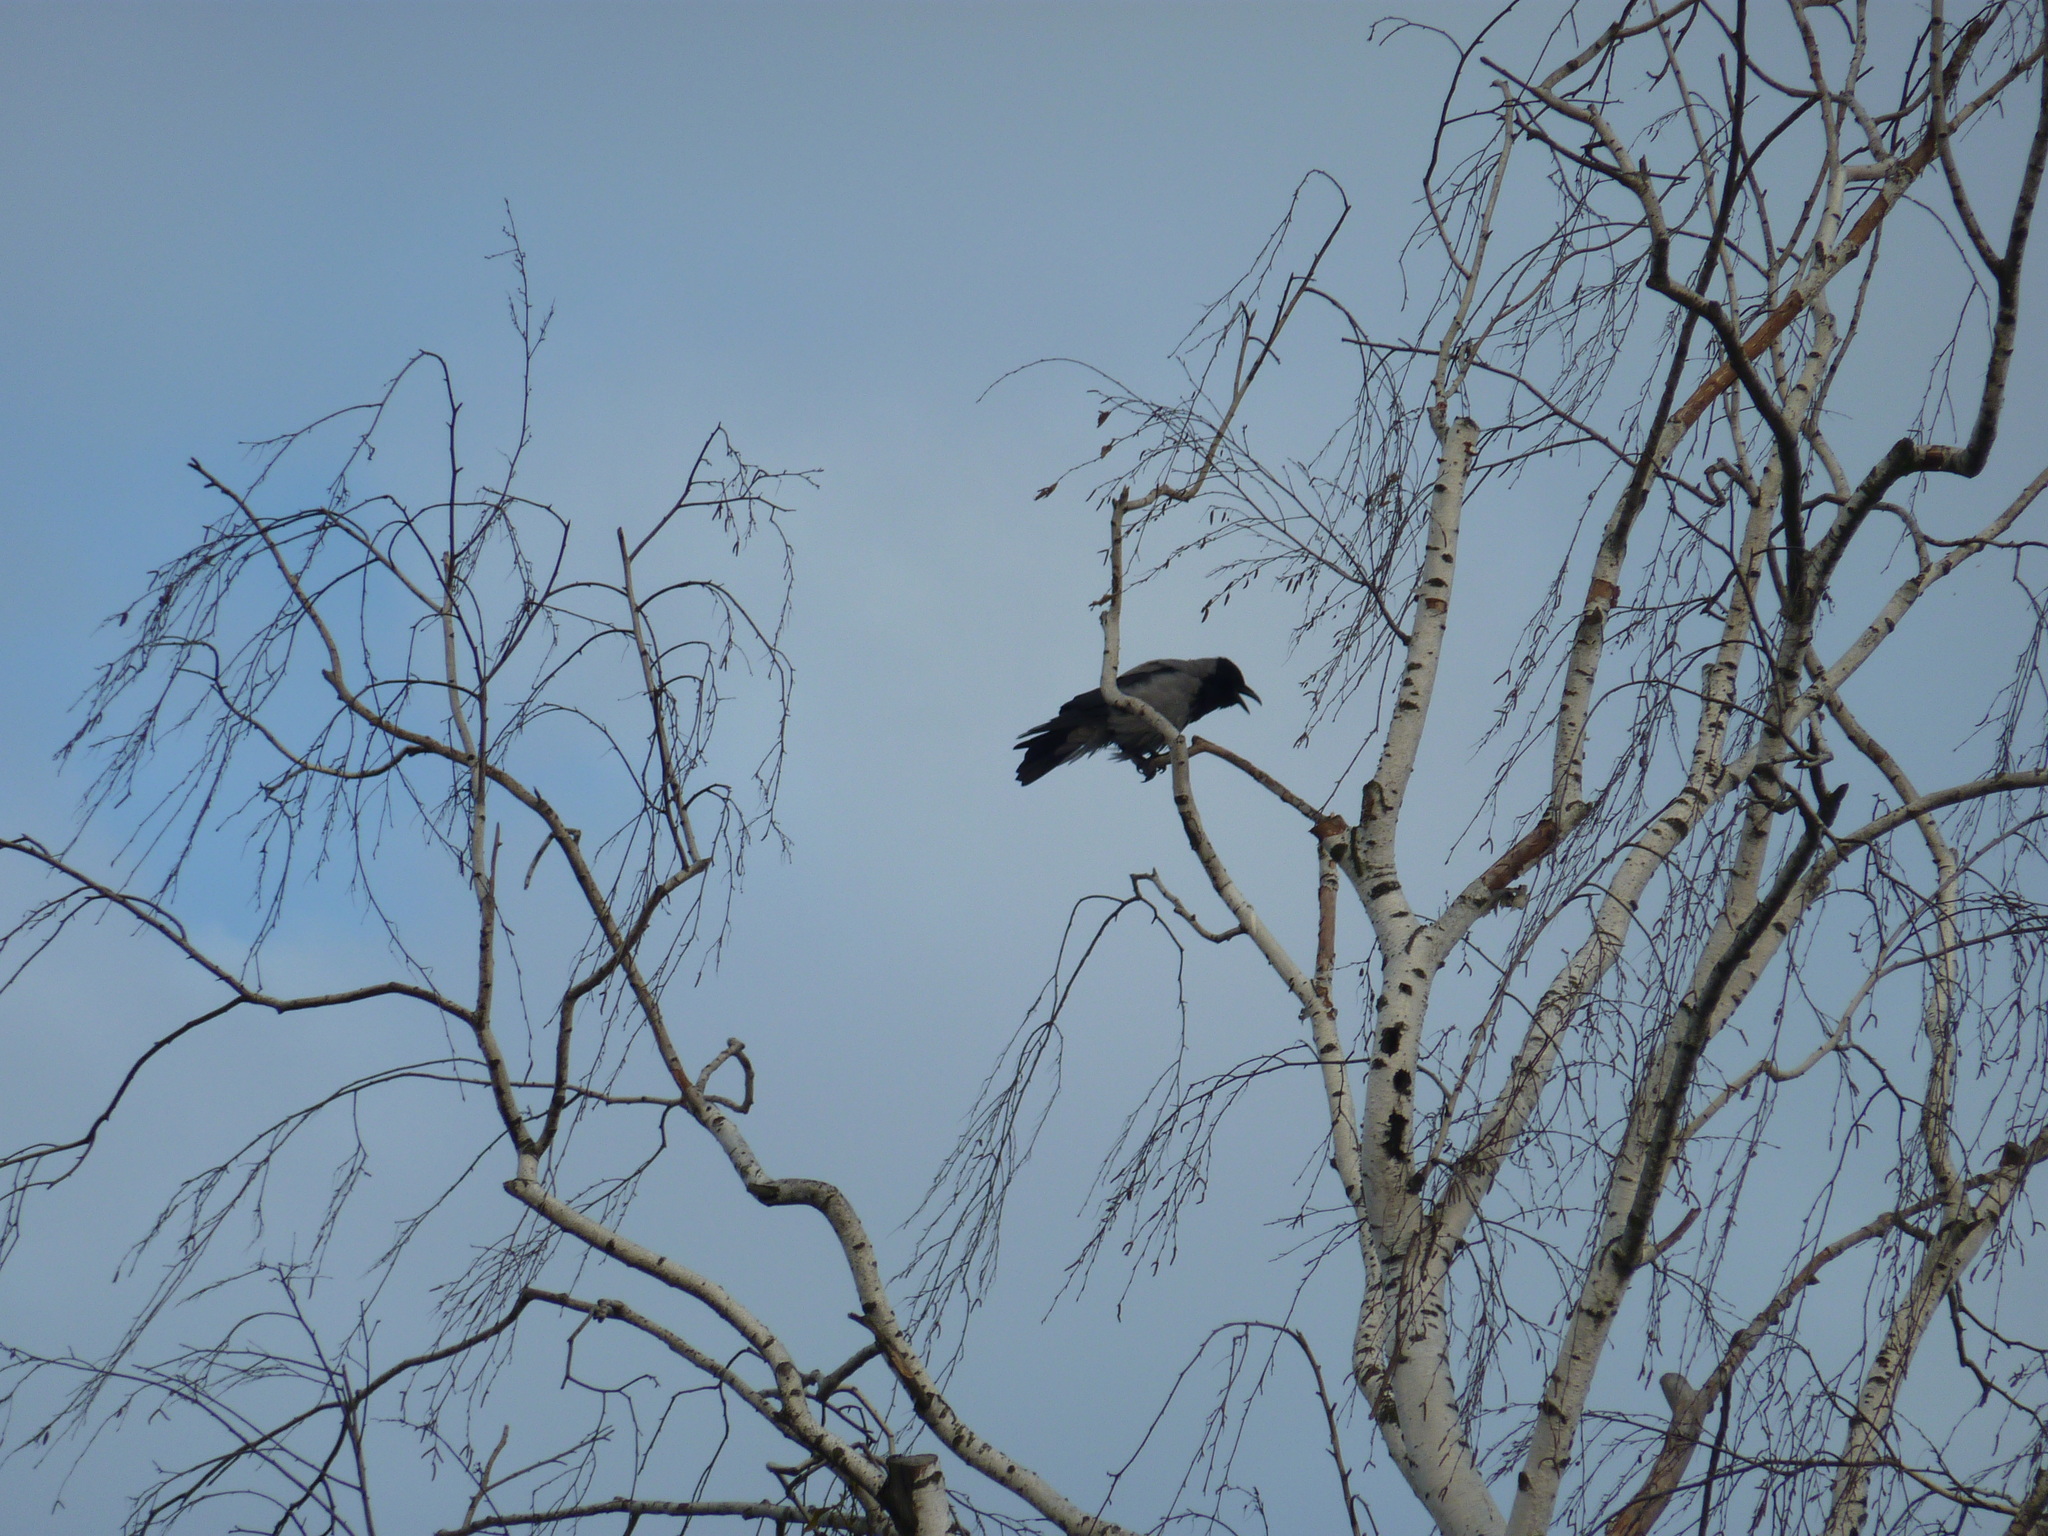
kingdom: Animalia
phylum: Chordata
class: Aves
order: Passeriformes
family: Corvidae
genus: Corvus
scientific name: Corvus cornix
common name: Hooded crow
